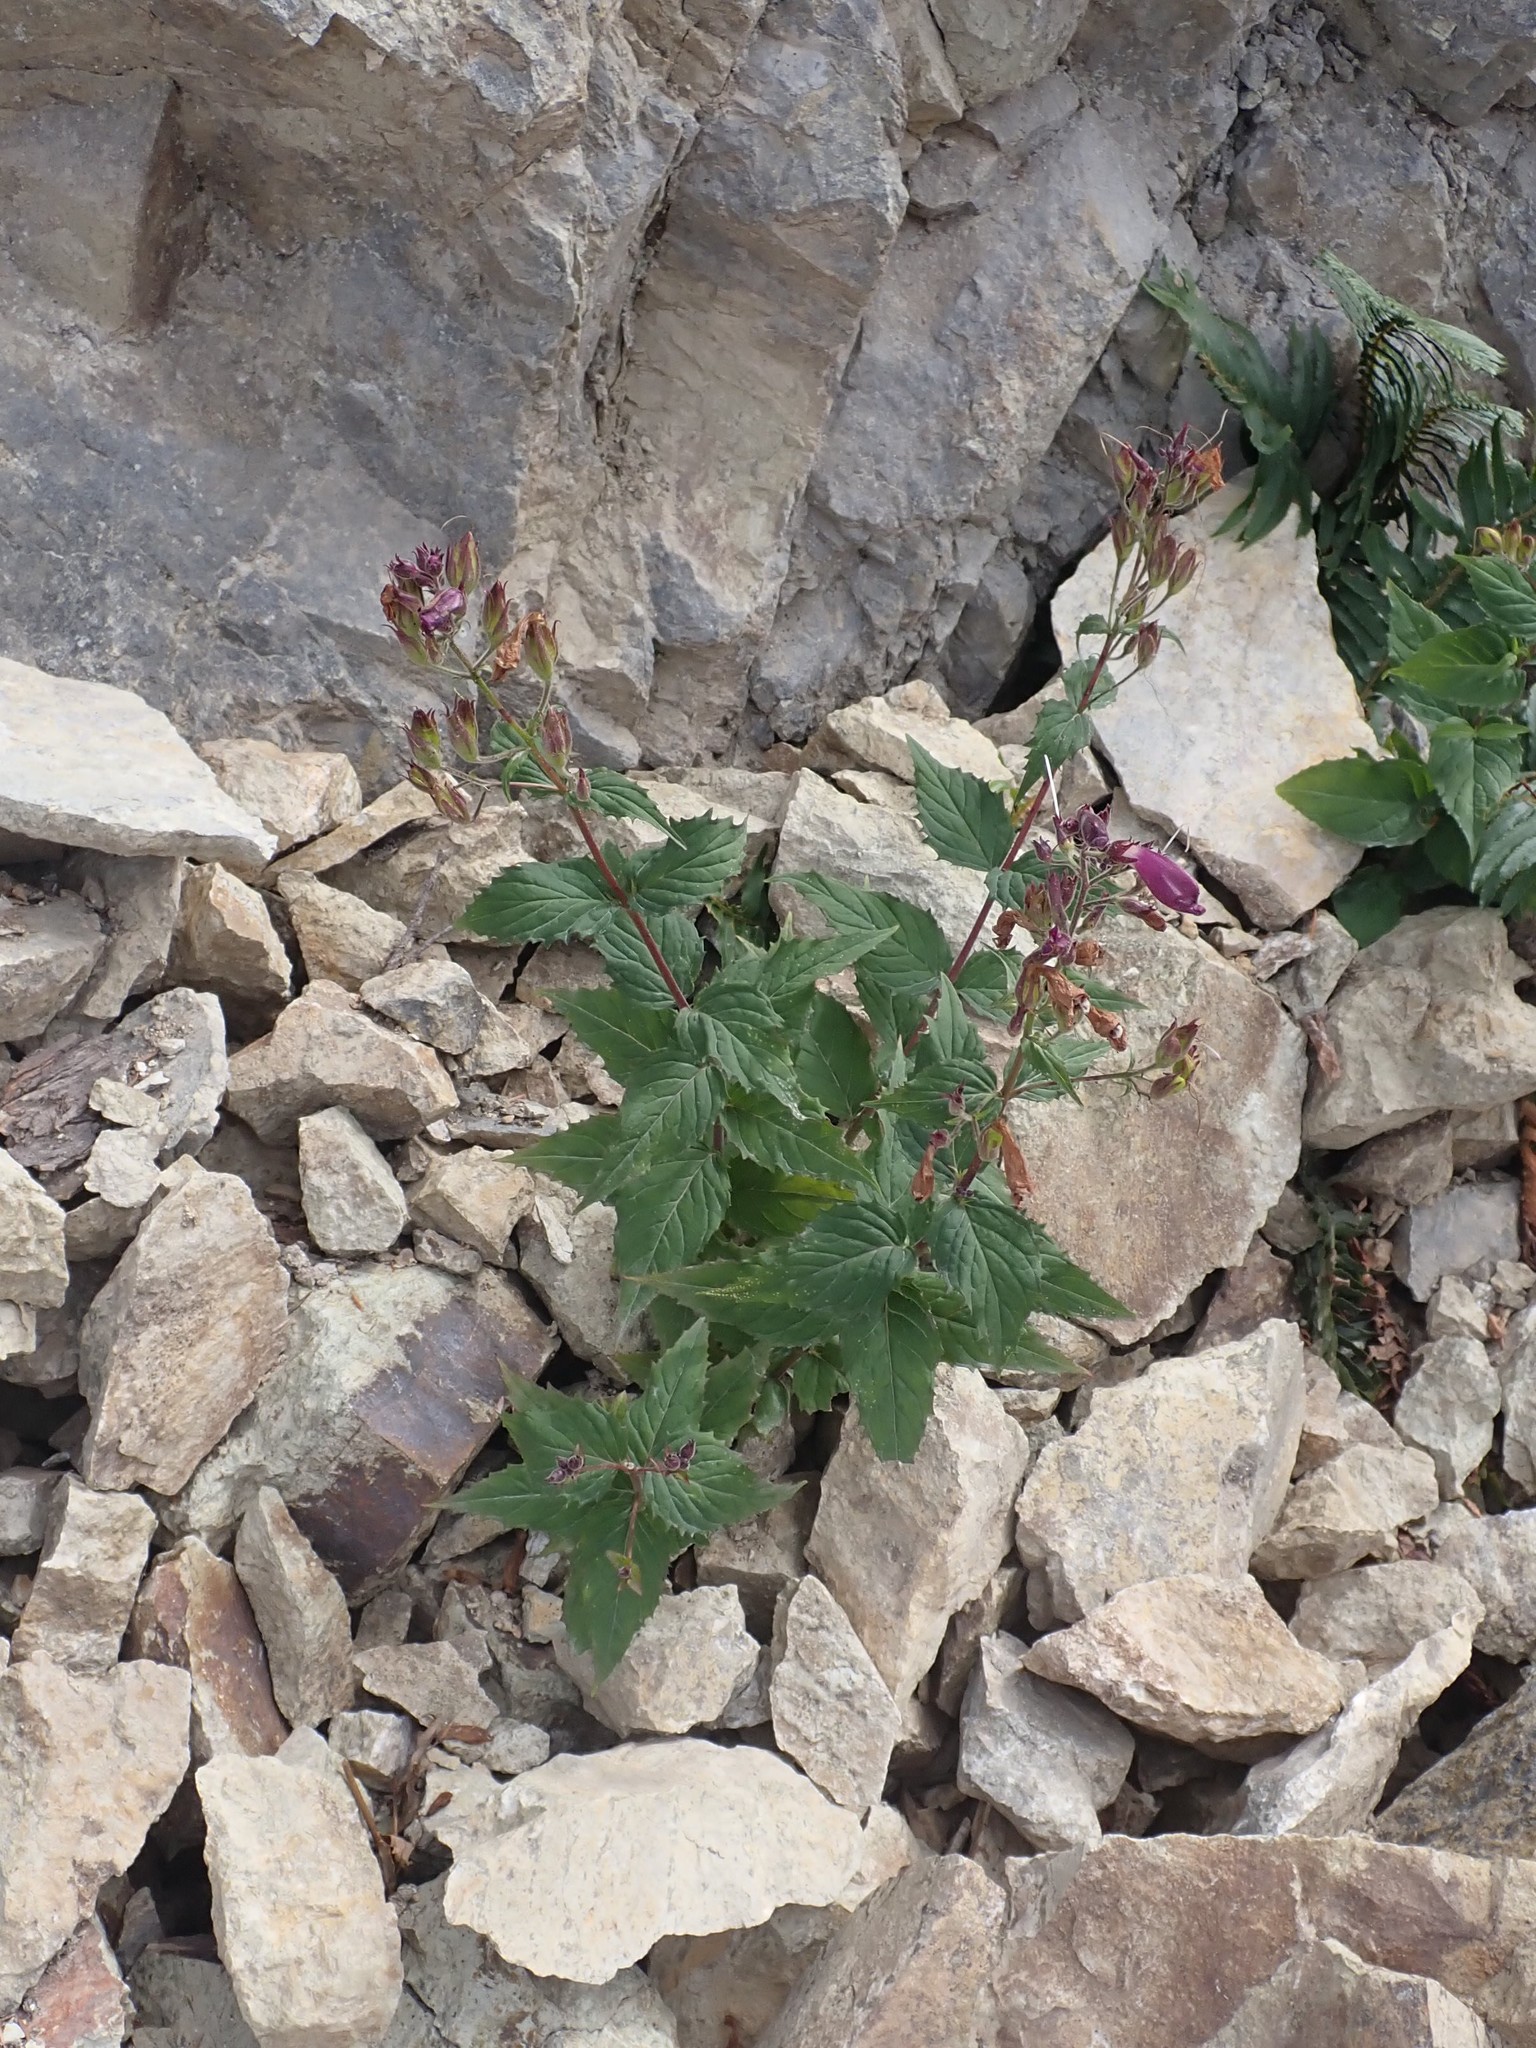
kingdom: Plantae
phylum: Tracheophyta
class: Magnoliopsida
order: Lamiales
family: Plantaginaceae
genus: Nothochelone
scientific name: Nothochelone nemorosa
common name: Woodland beardtongue
